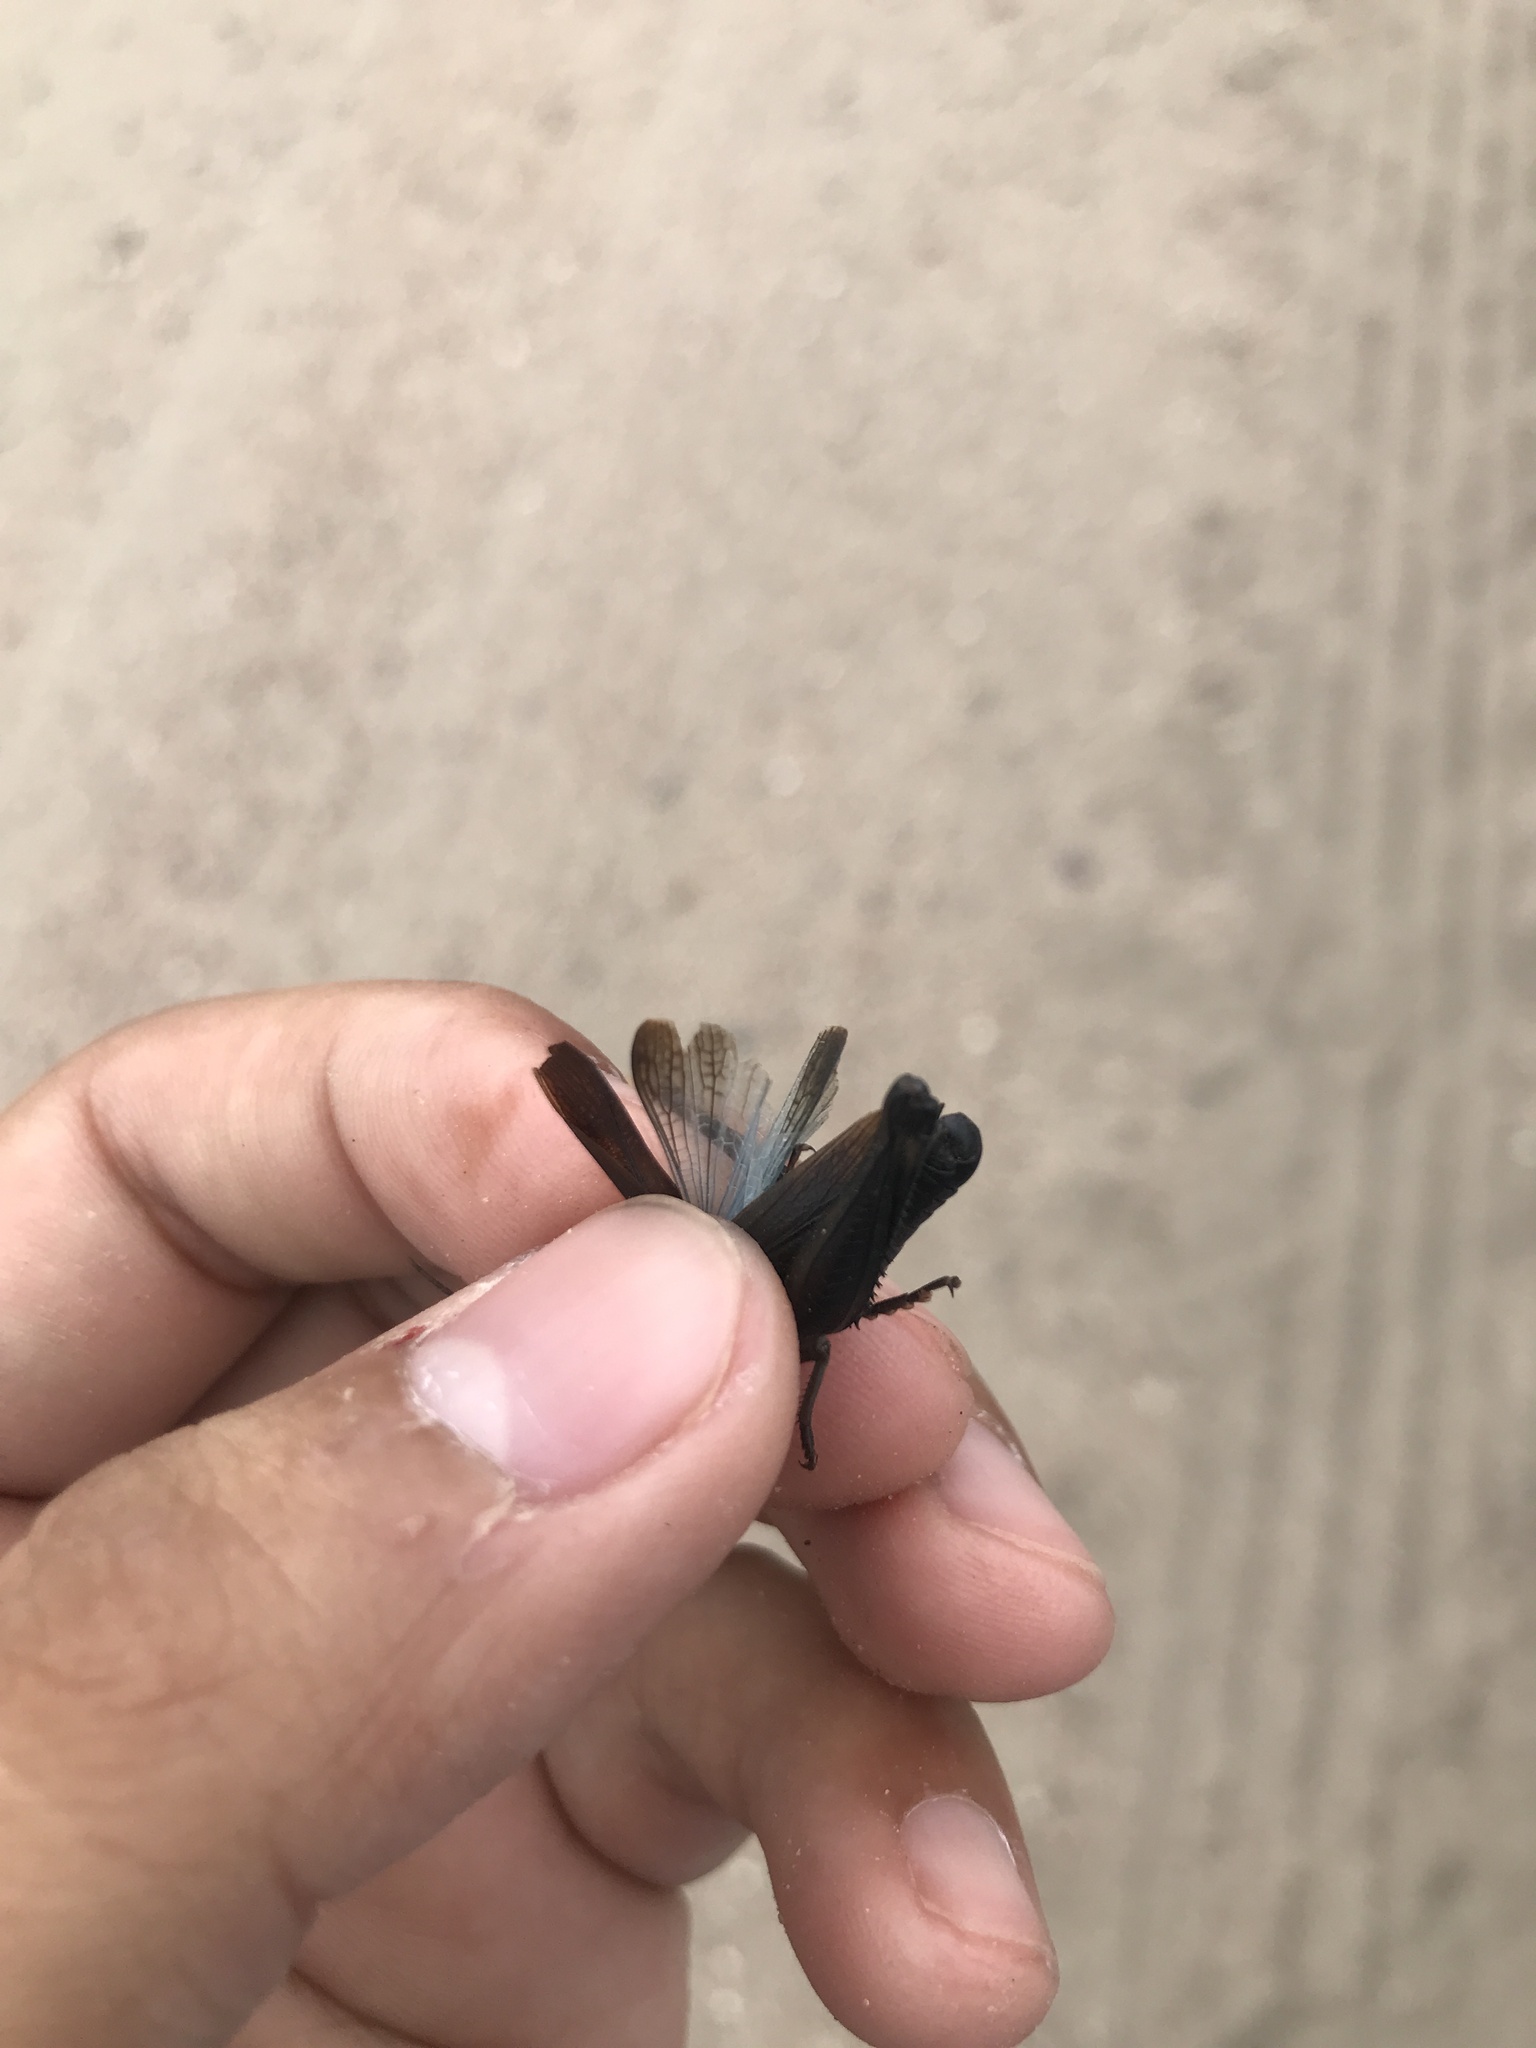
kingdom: Animalia
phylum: Arthropoda
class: Insecta
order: Orthoptera
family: Acrididae
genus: Boopedon
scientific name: Boopedon nubilum
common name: Ebony grasshopper
